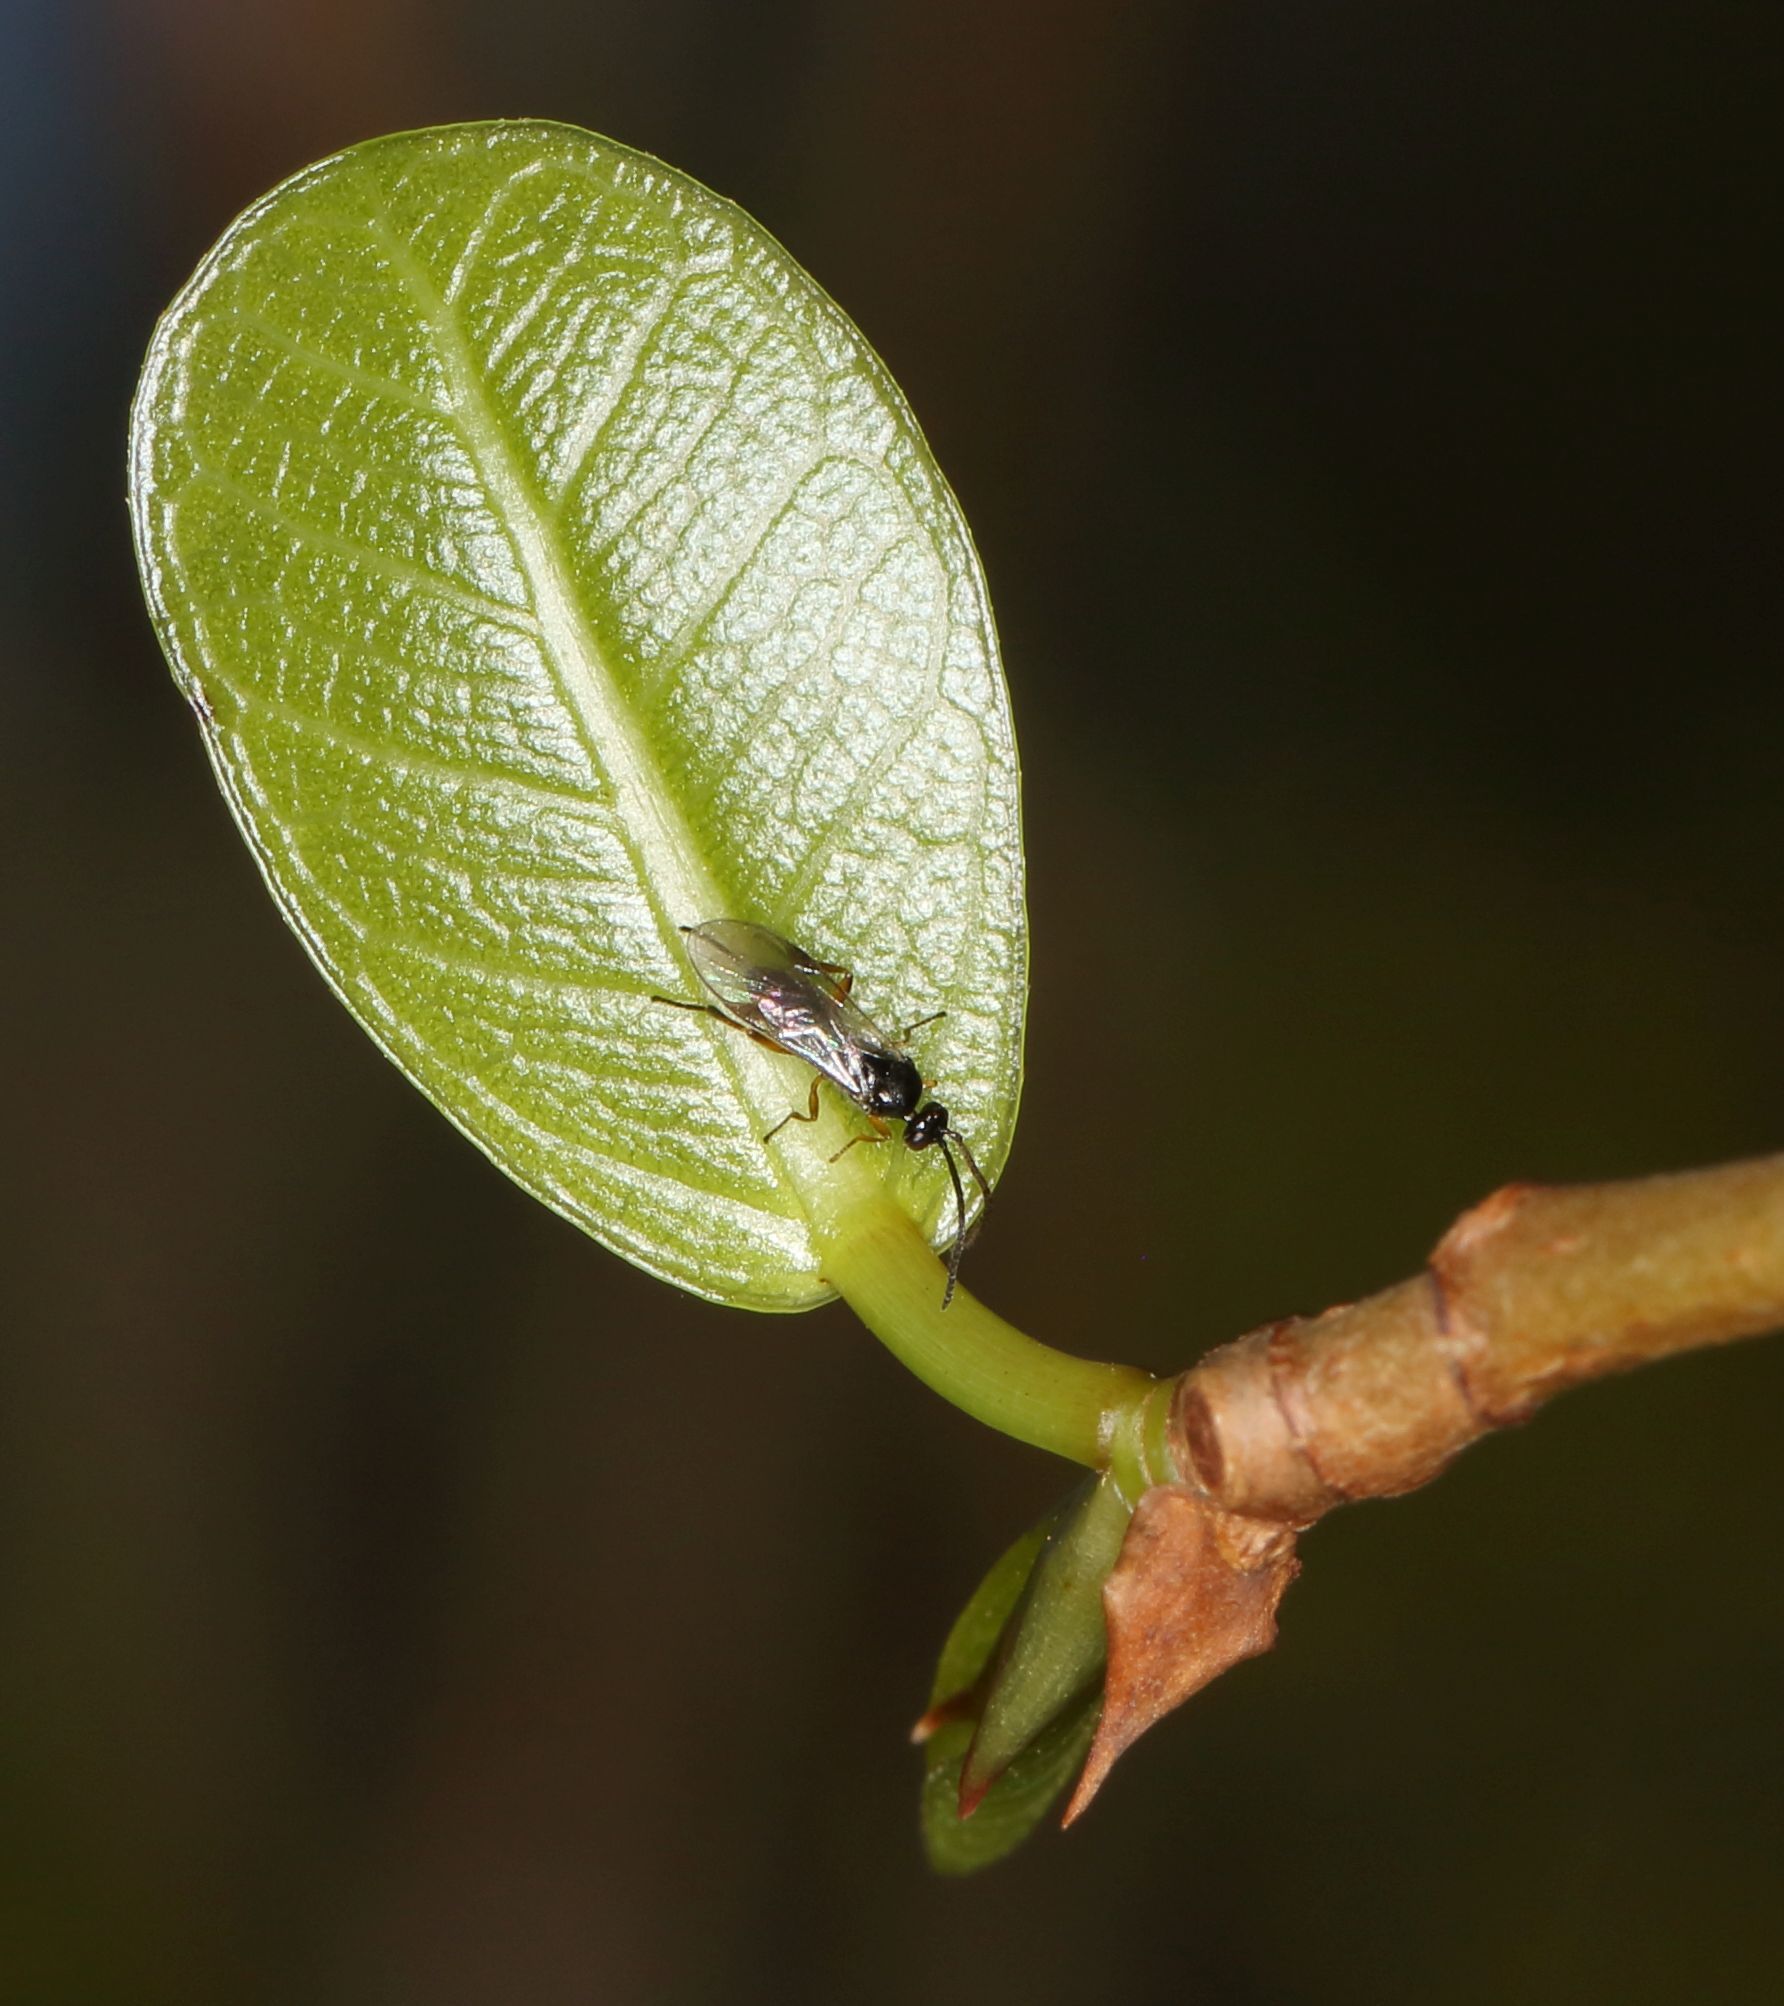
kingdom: Animalia
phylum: Arthropoda
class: Insecta
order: Hymenoptera
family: Braconidae
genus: Dolichogenidea
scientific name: Dolichogenidea
